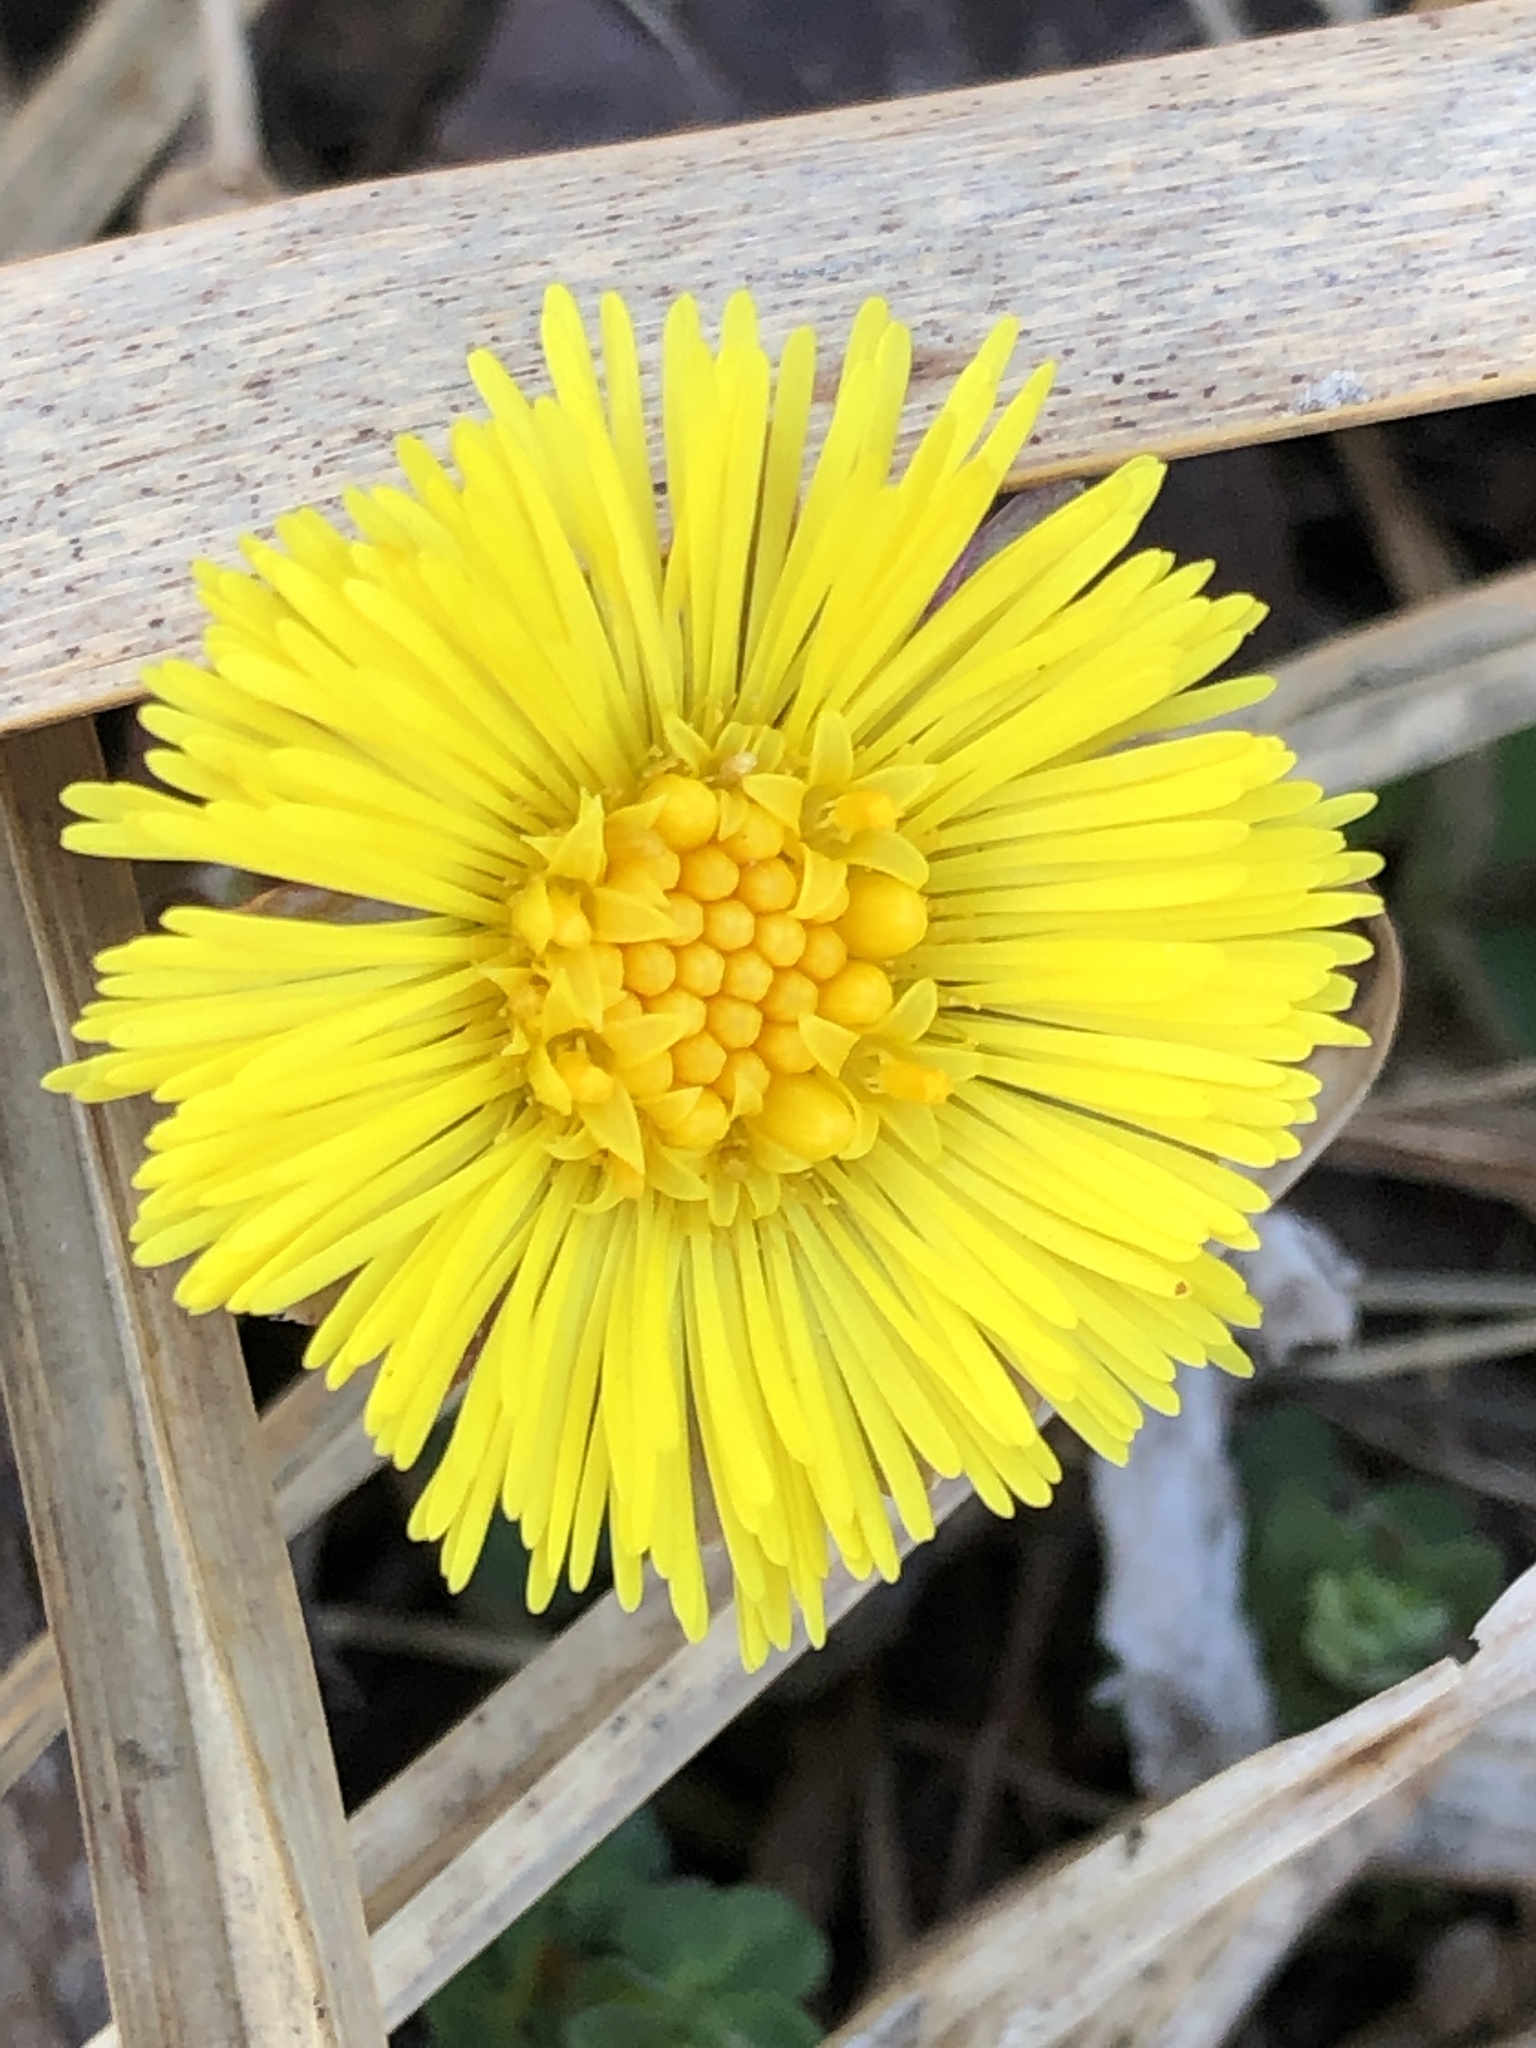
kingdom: Plantae
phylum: Tracheophyta
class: Magnoliopsida
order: Asterales
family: Asteraceae
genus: Tussilago
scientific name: Tussilago farfara
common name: Coltsfoot
